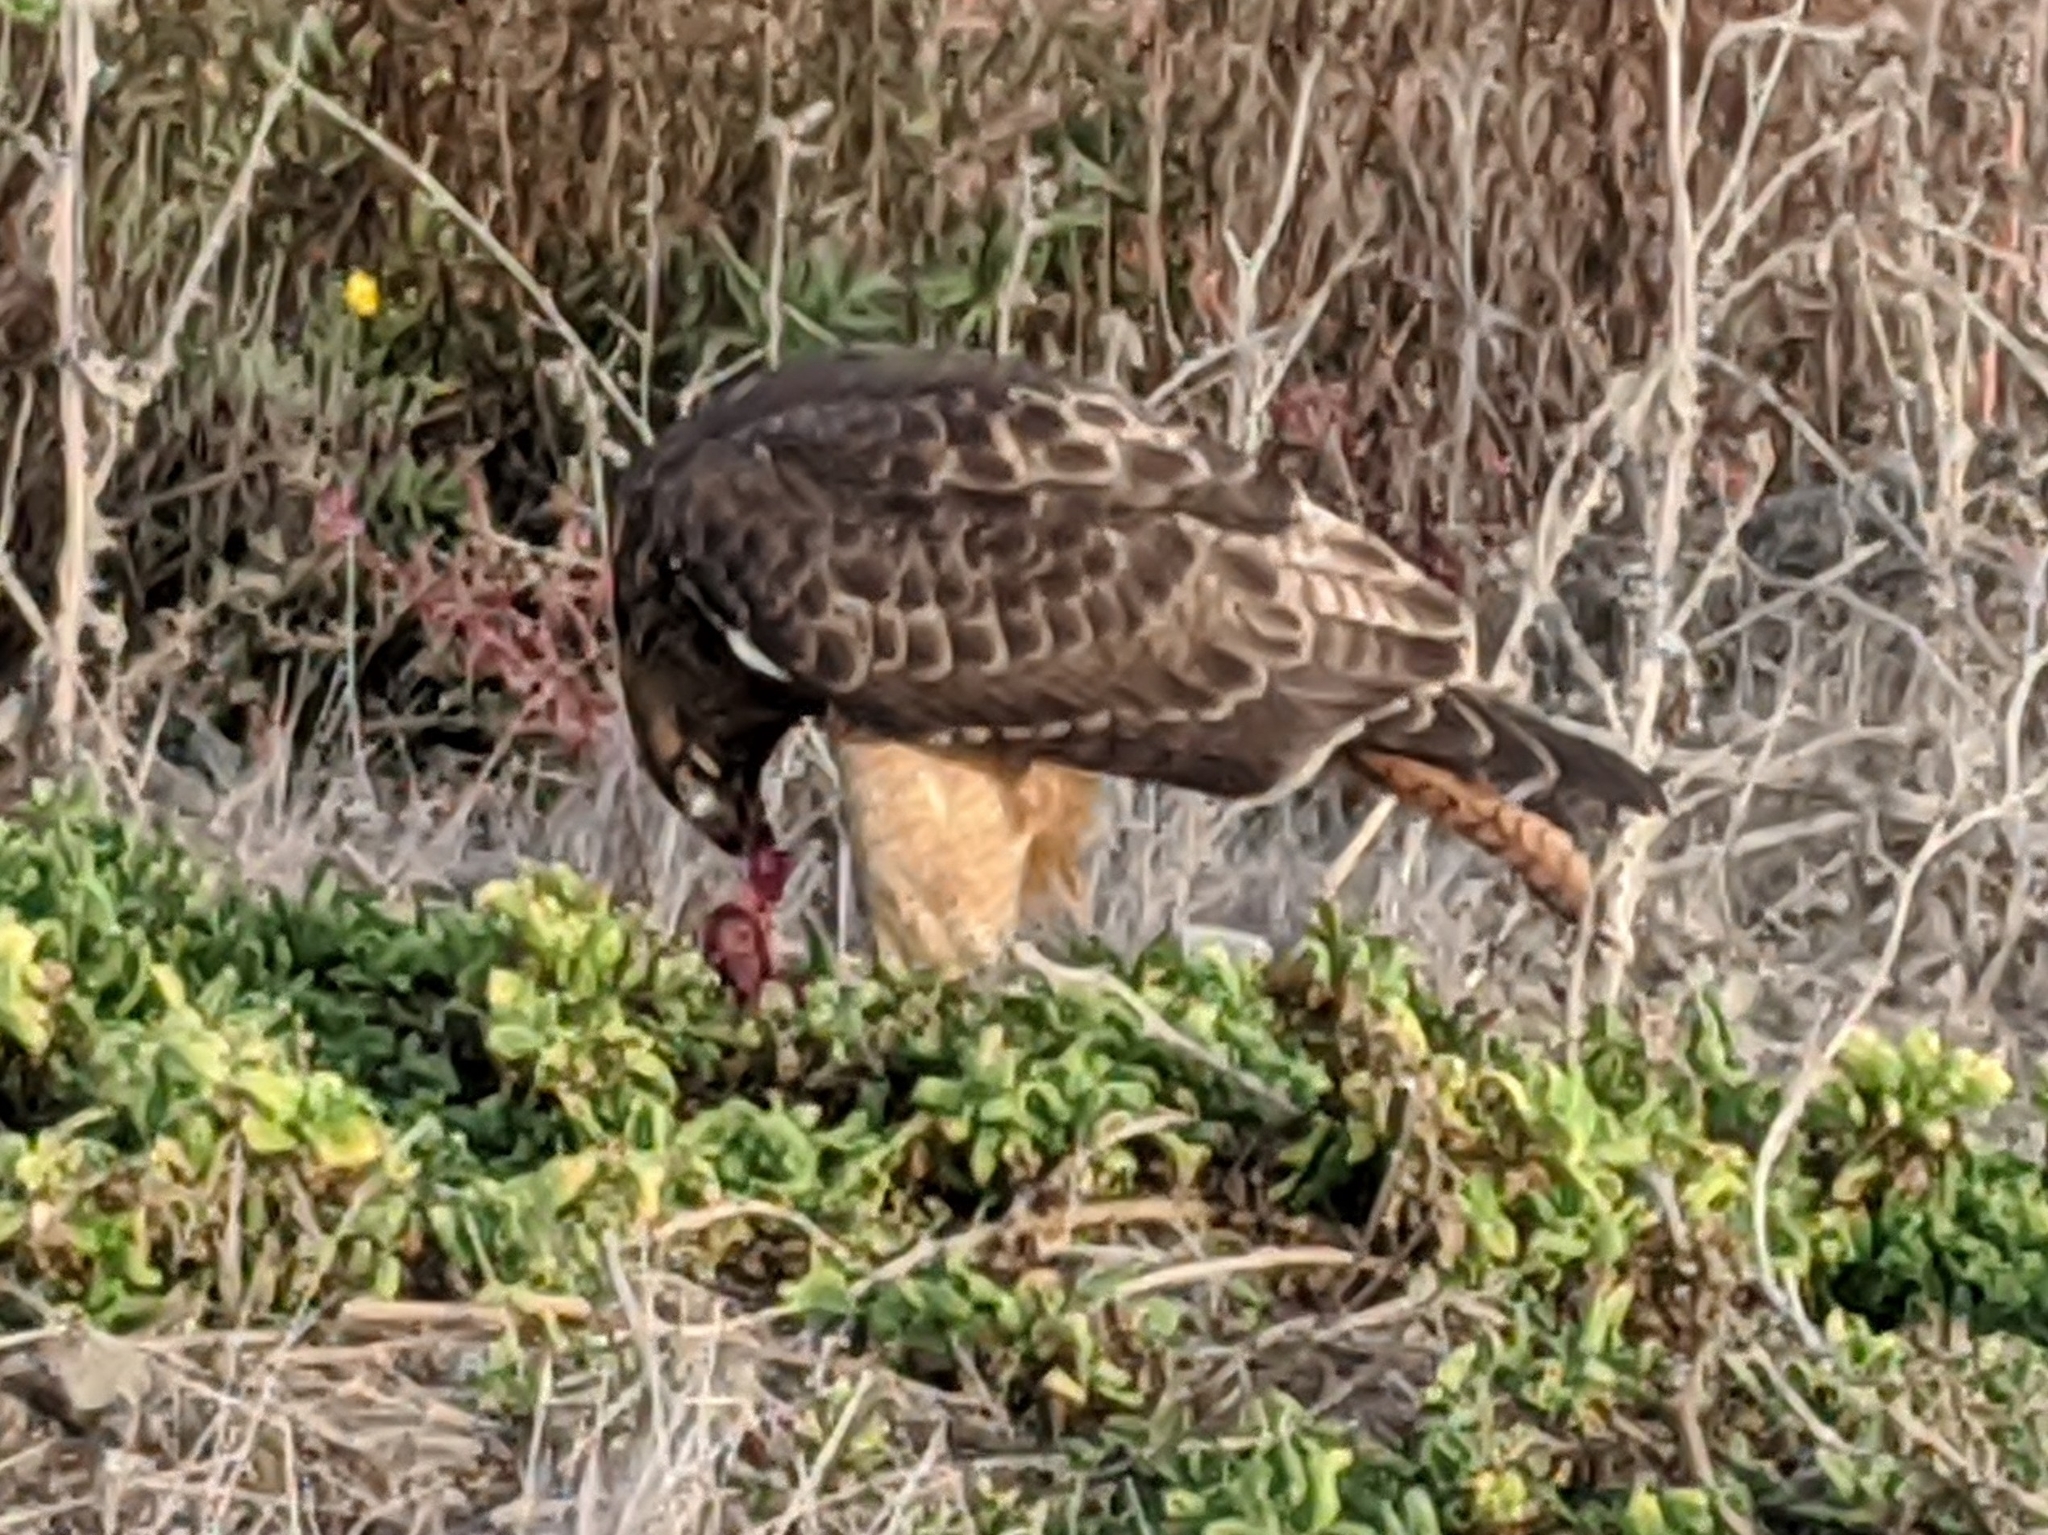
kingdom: Animalia
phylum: Chordata
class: Aves
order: Accipitriformes
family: Accipitridae
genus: Buteo
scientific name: Buteo jamaicensis
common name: Red-tailed hawk
